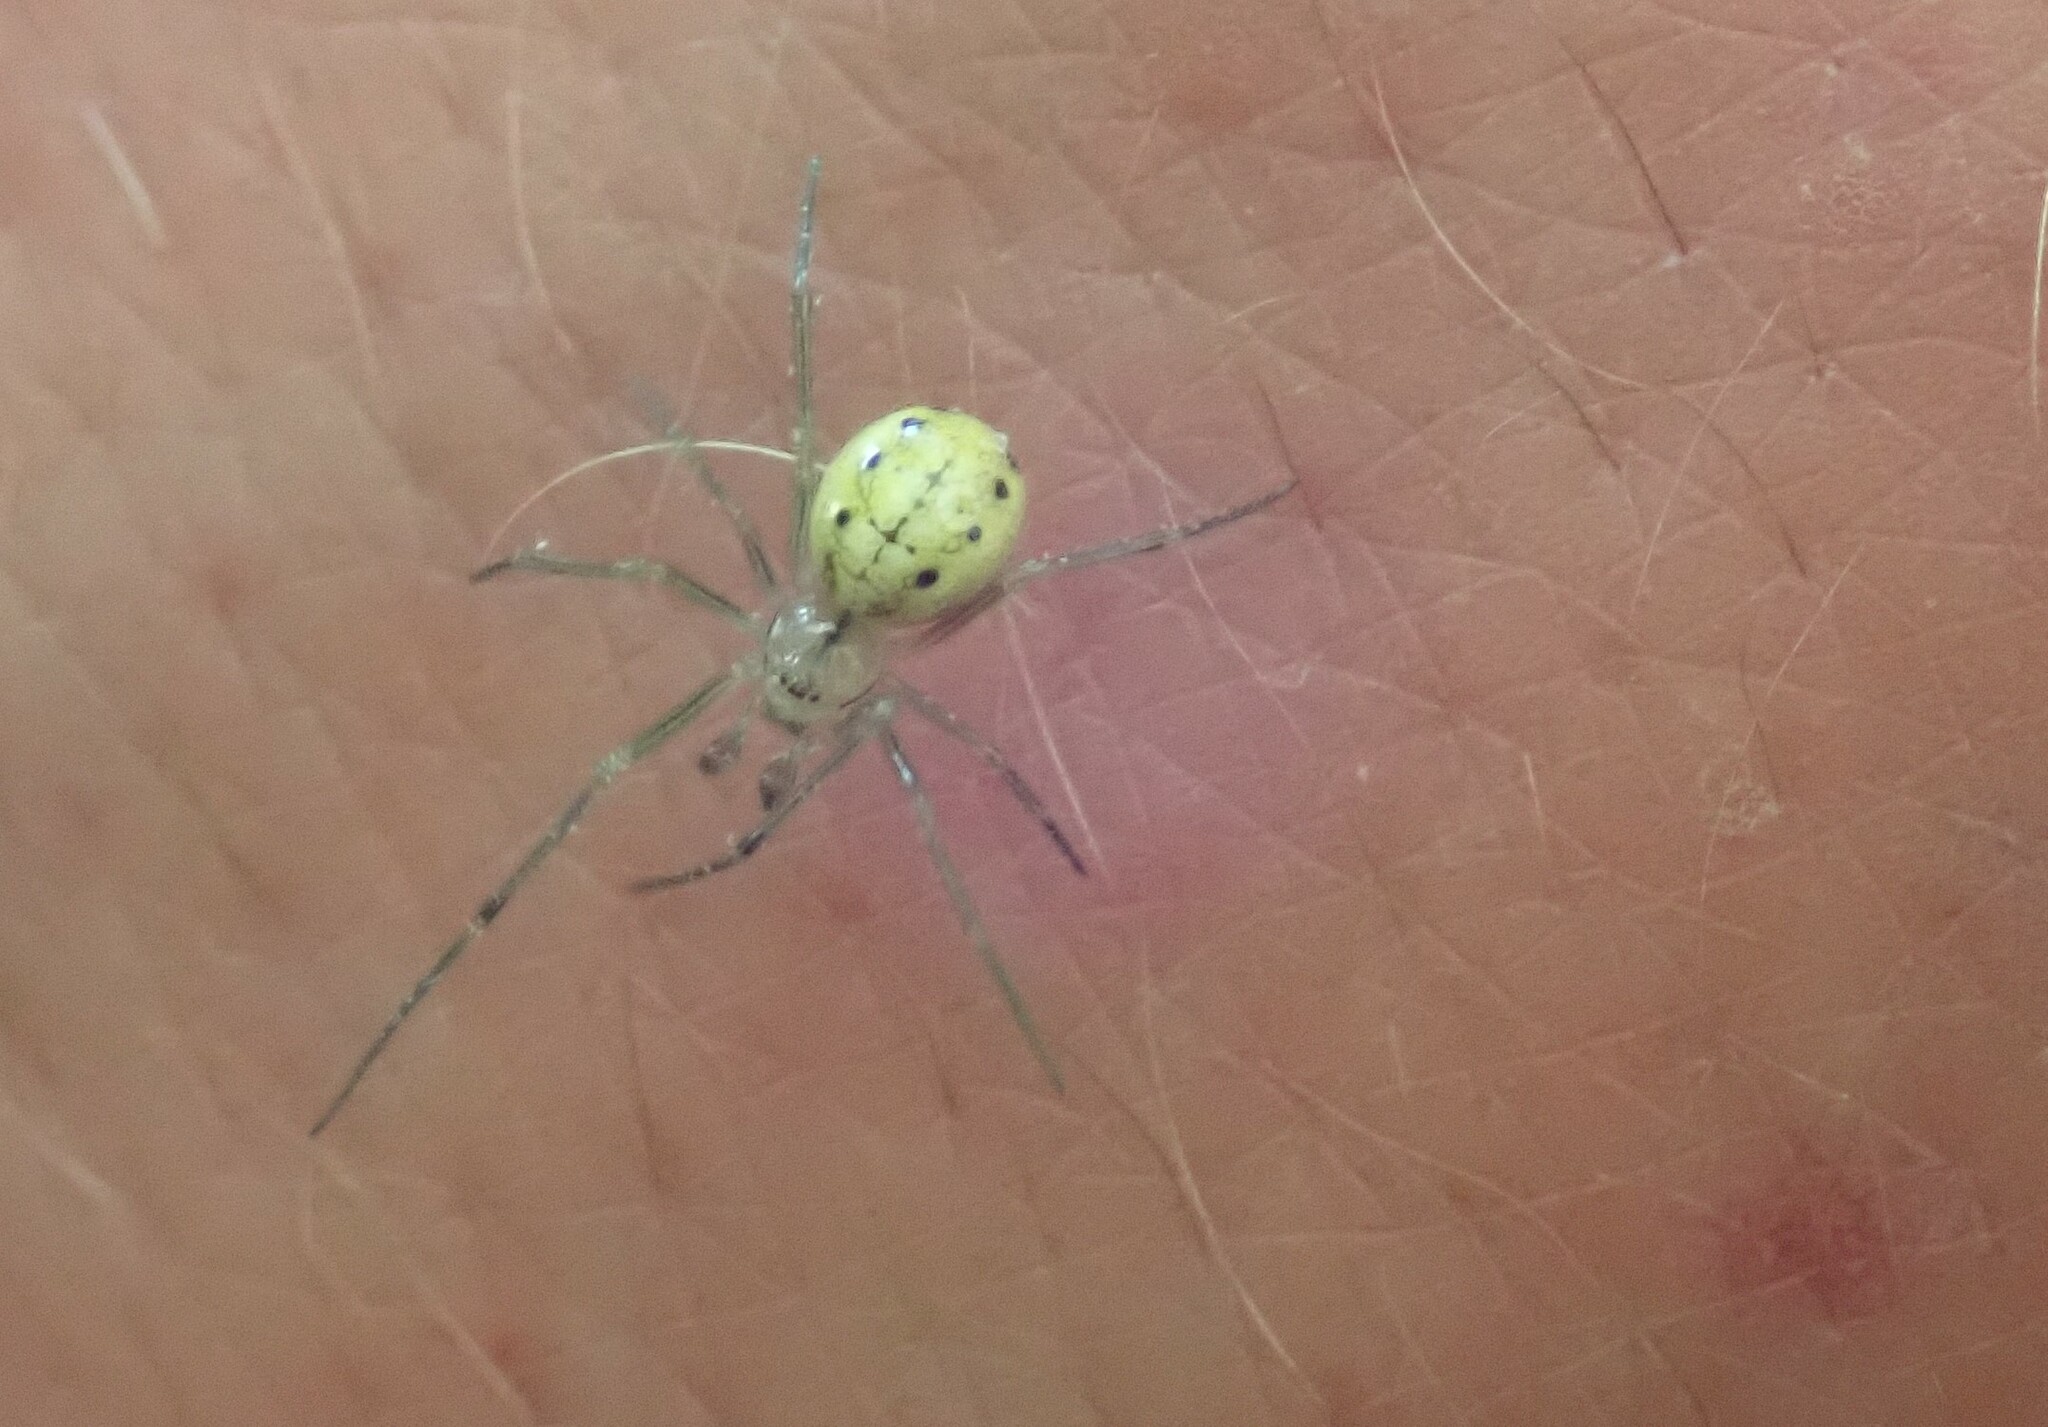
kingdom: Animalia
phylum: Arthropoda
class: Arachnida
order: Araneae
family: Theridiidae
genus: Enoplognatha
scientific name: Enoplognatha ovata
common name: Common candy-striped spider
